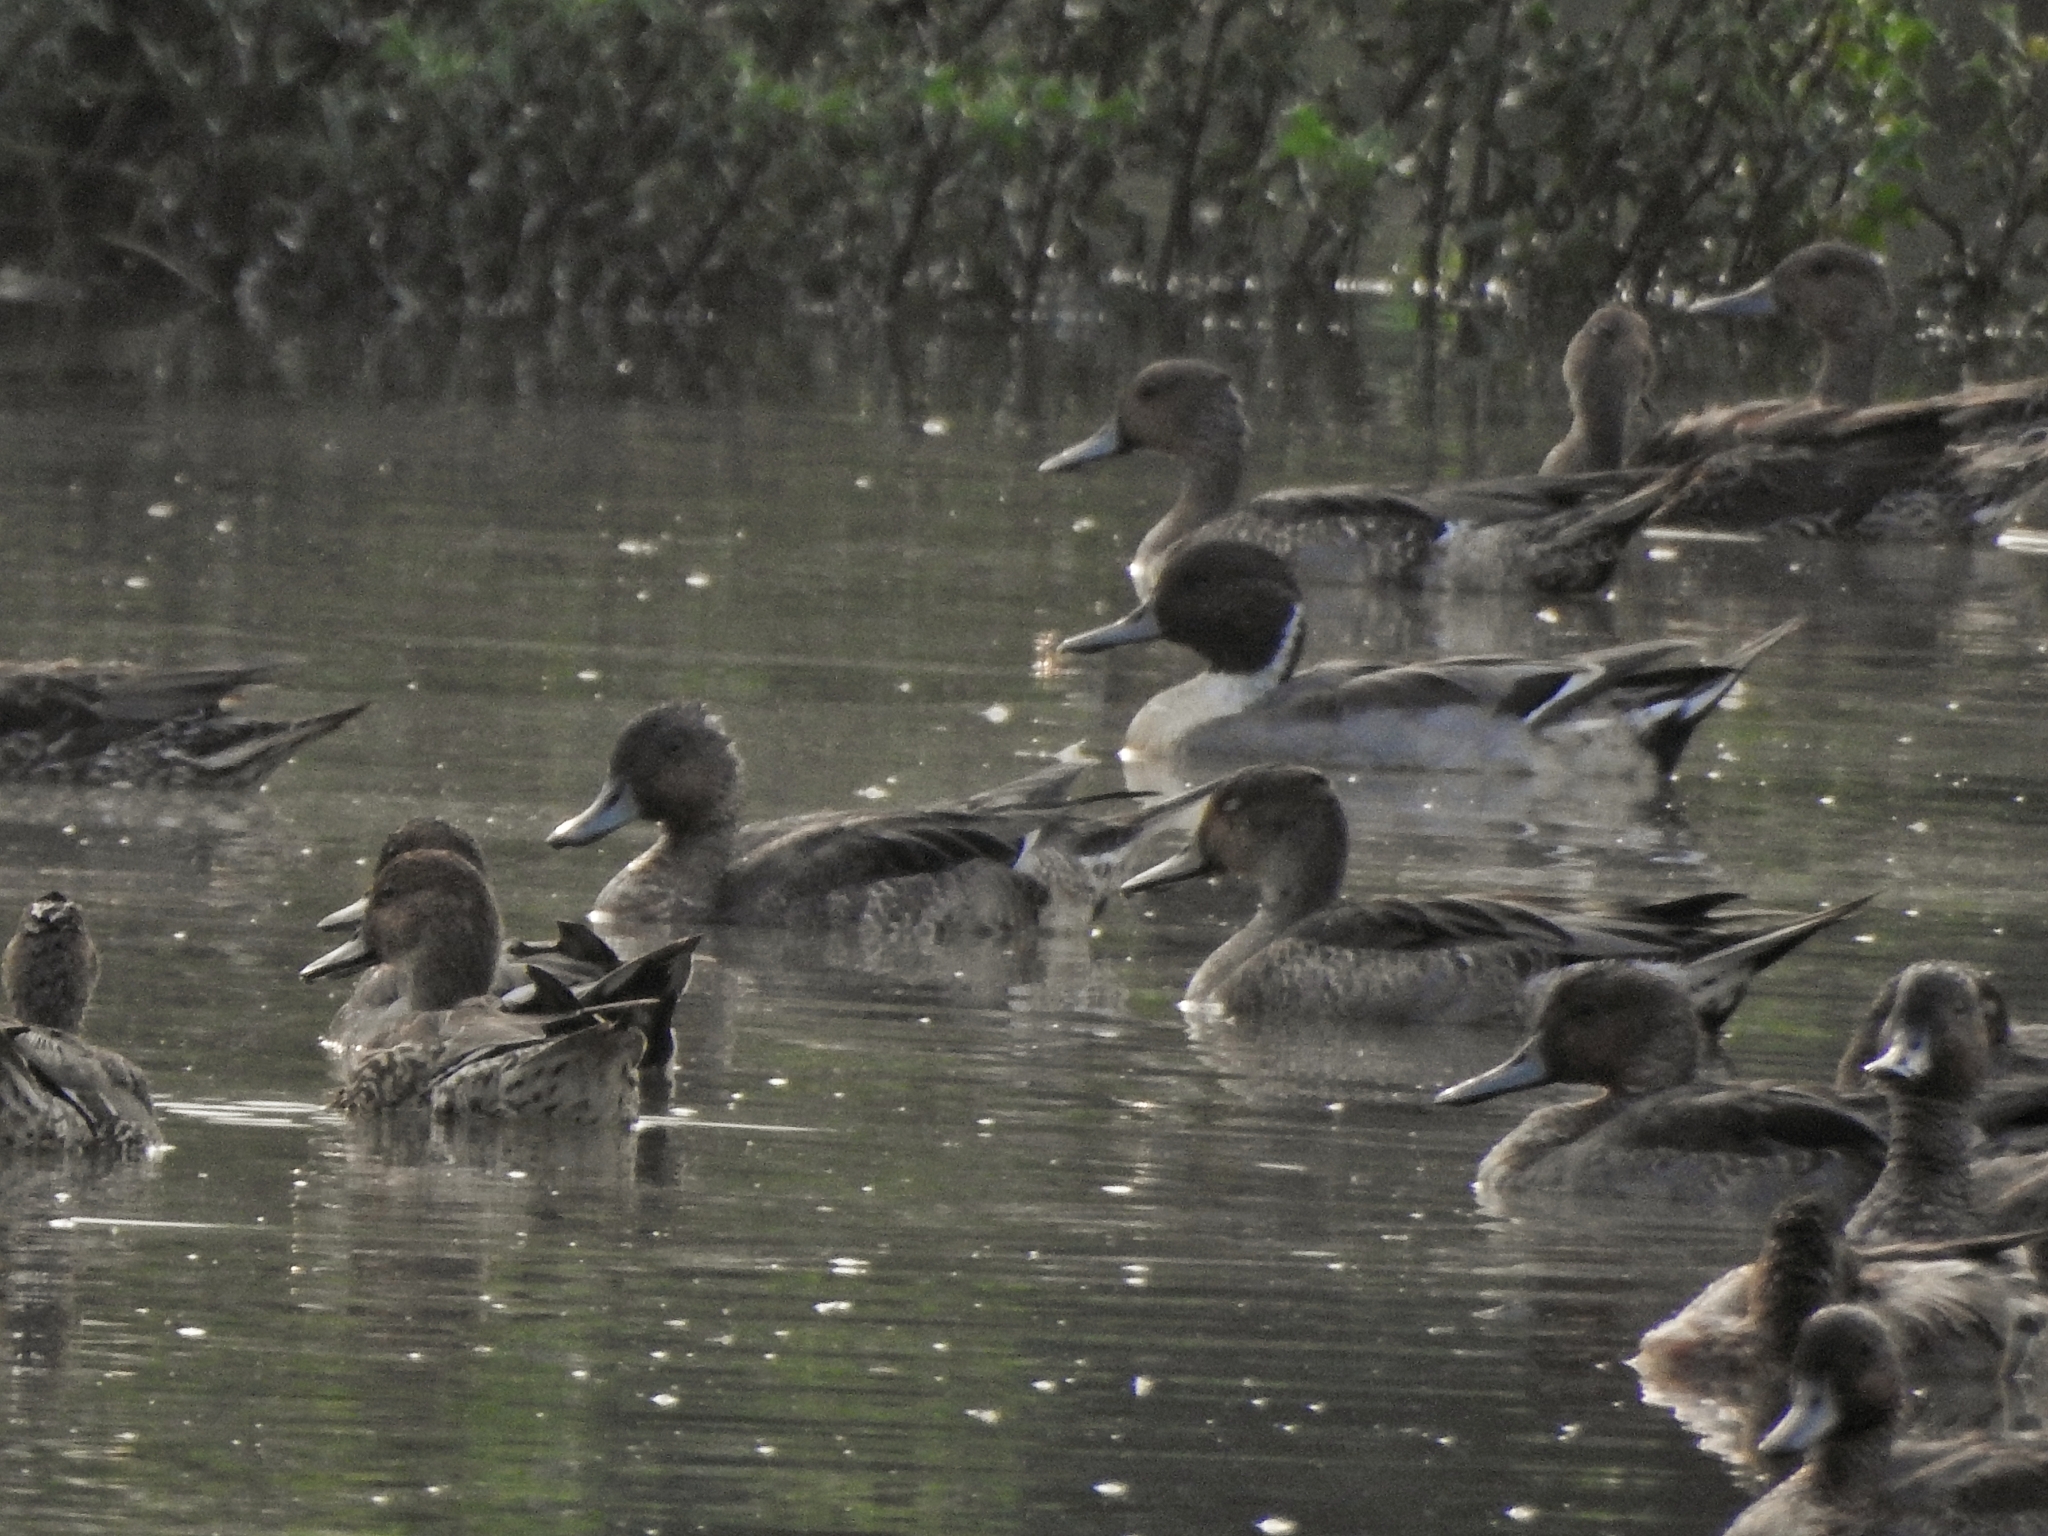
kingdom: Animalia
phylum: Chordata
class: Aves
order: Anseriformes
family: Anatidae
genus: Anas
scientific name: Anas acuta
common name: Northern pintail
